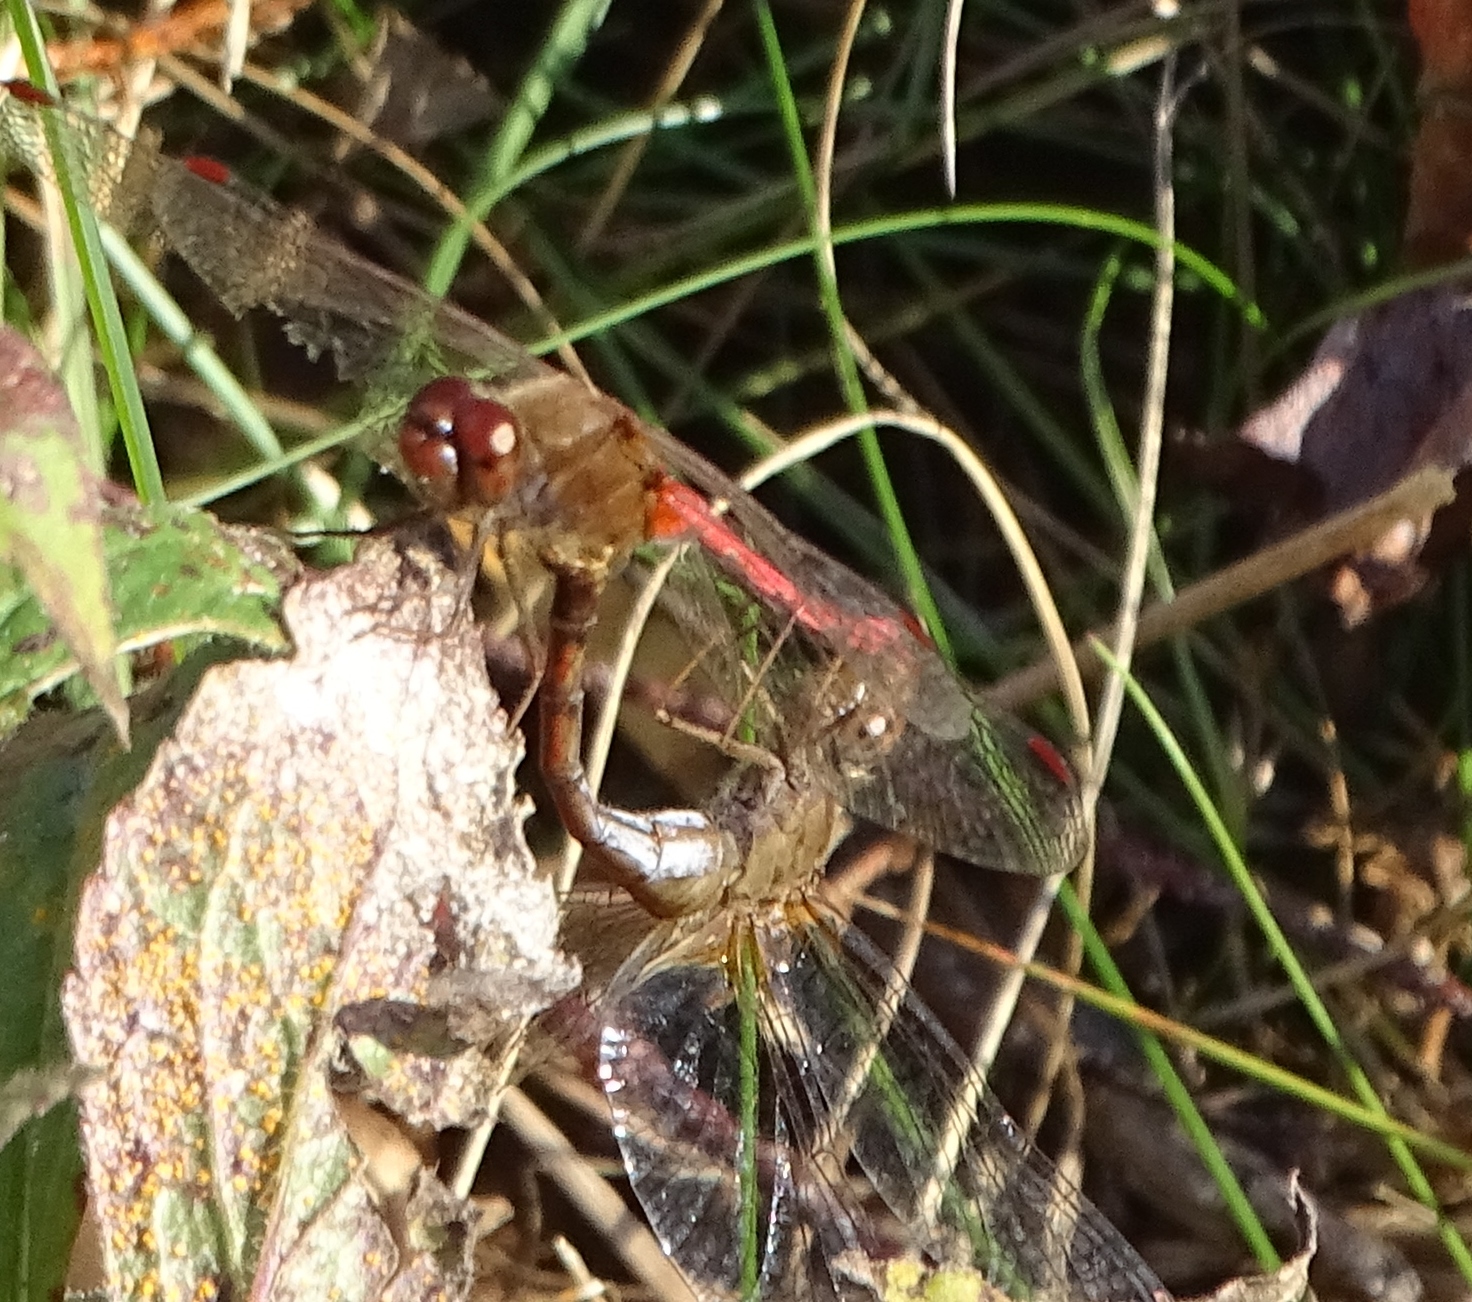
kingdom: Animalia
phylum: Arthropoda
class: Insecta
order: Odonata
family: Libellulidae
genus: Sympetrum
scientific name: Sympetrum vicinum
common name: Autumn meadowhawk
